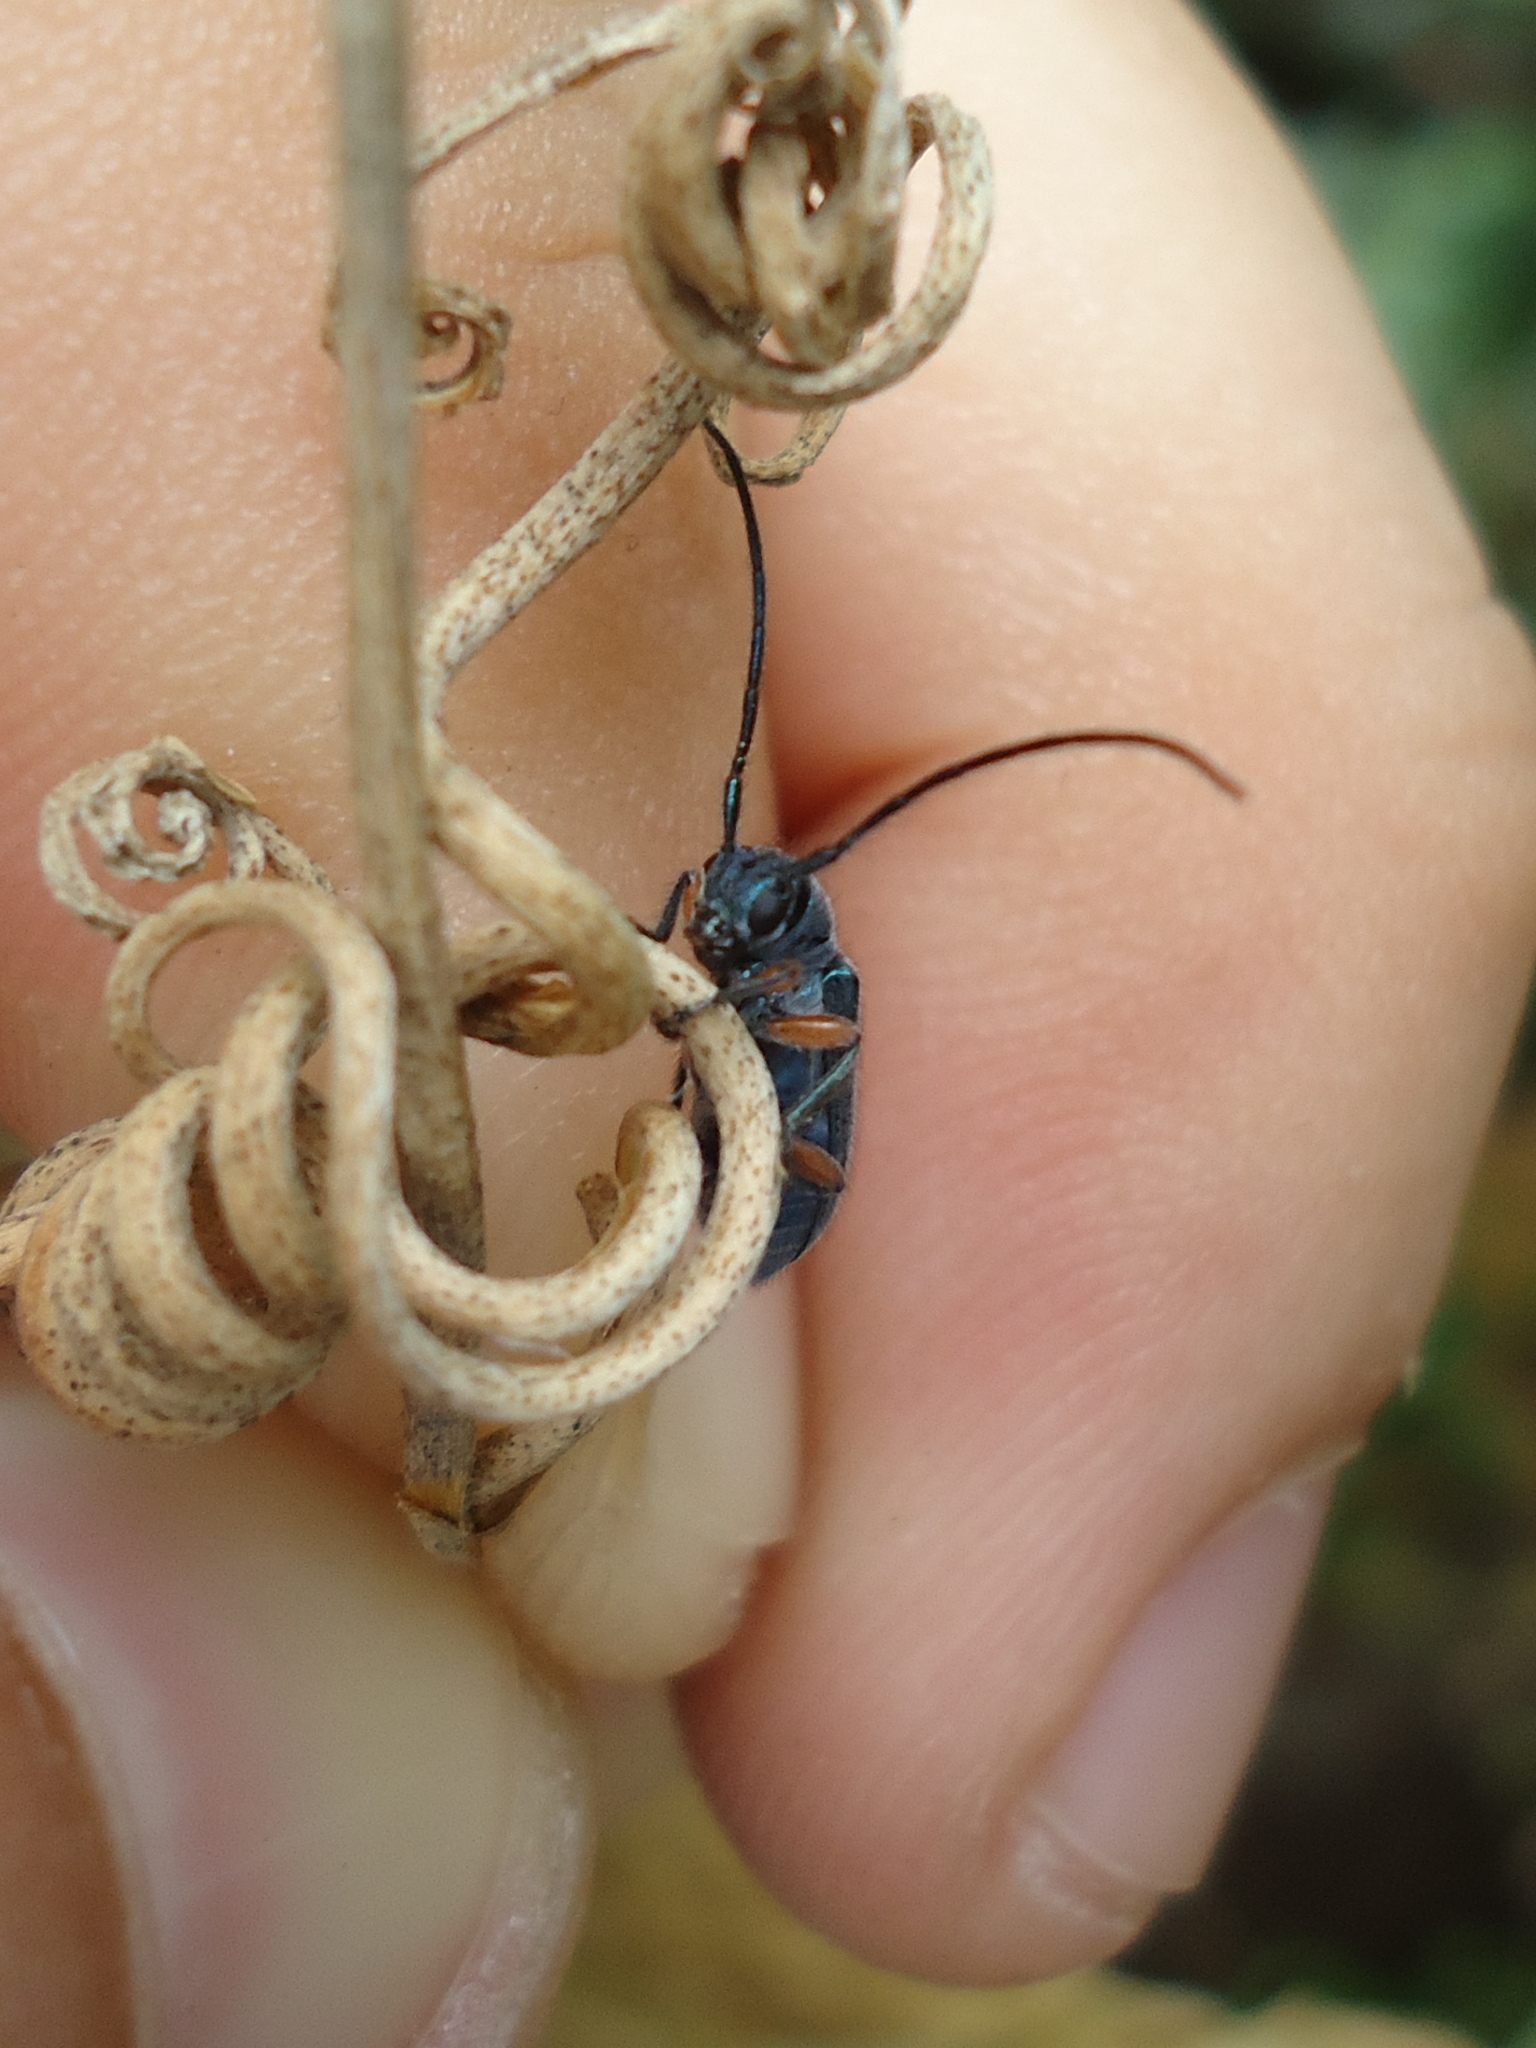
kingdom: Animalia
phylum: Arthropoda
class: Insecta
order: Coleoptera
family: Cerambycidae
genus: Callia
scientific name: Callia xanthomera
